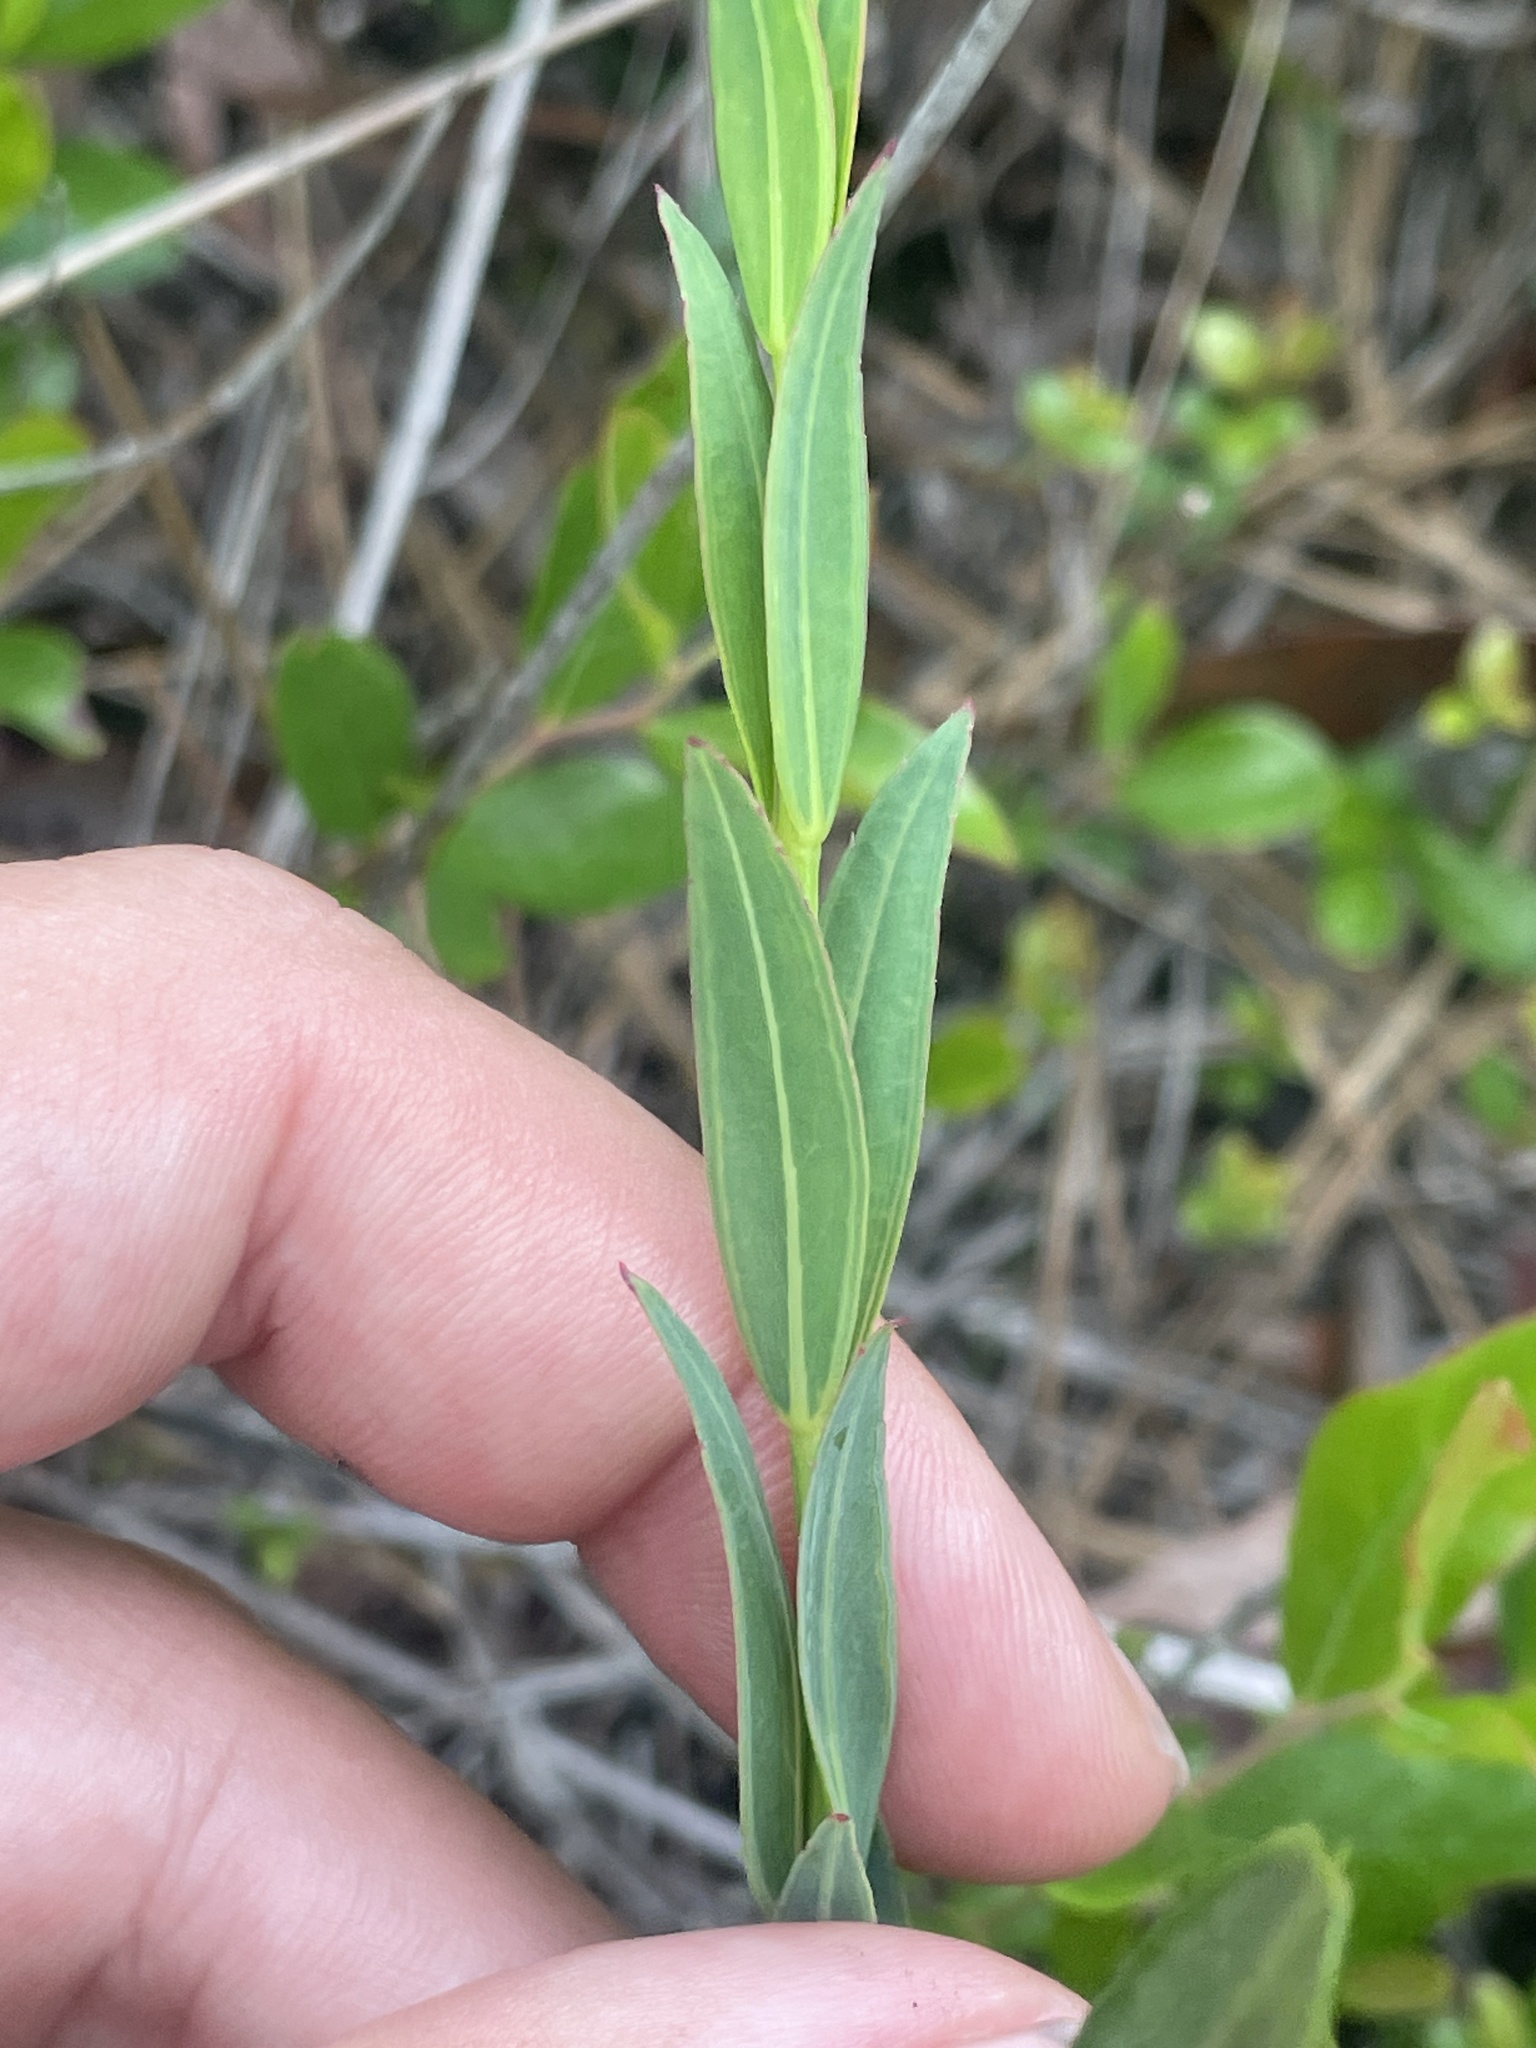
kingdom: Plantae
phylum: Tracheophyta
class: Magnoliopsida
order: Myrtales
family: Melastomataceae
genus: Rhexia
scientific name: Rhexia alifanus
